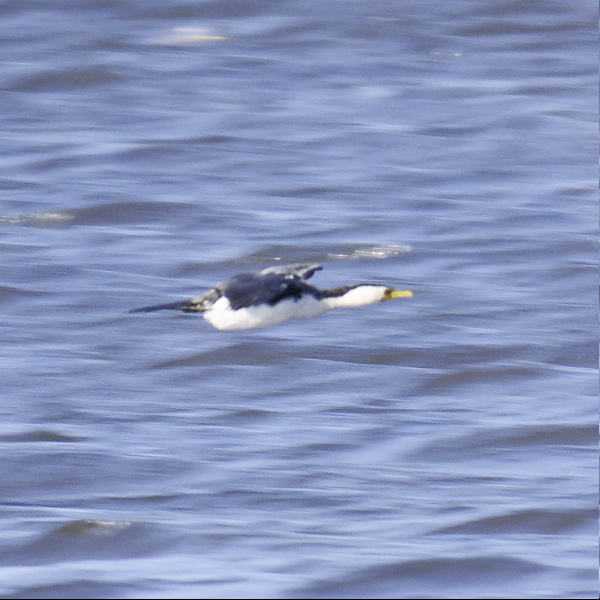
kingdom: Animalia
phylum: Chordata
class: Aves
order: Suliformes
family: Phalacrocoracidae
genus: Microcarbo
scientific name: Microcarbo melanoleucos
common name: Little pied cormorant
